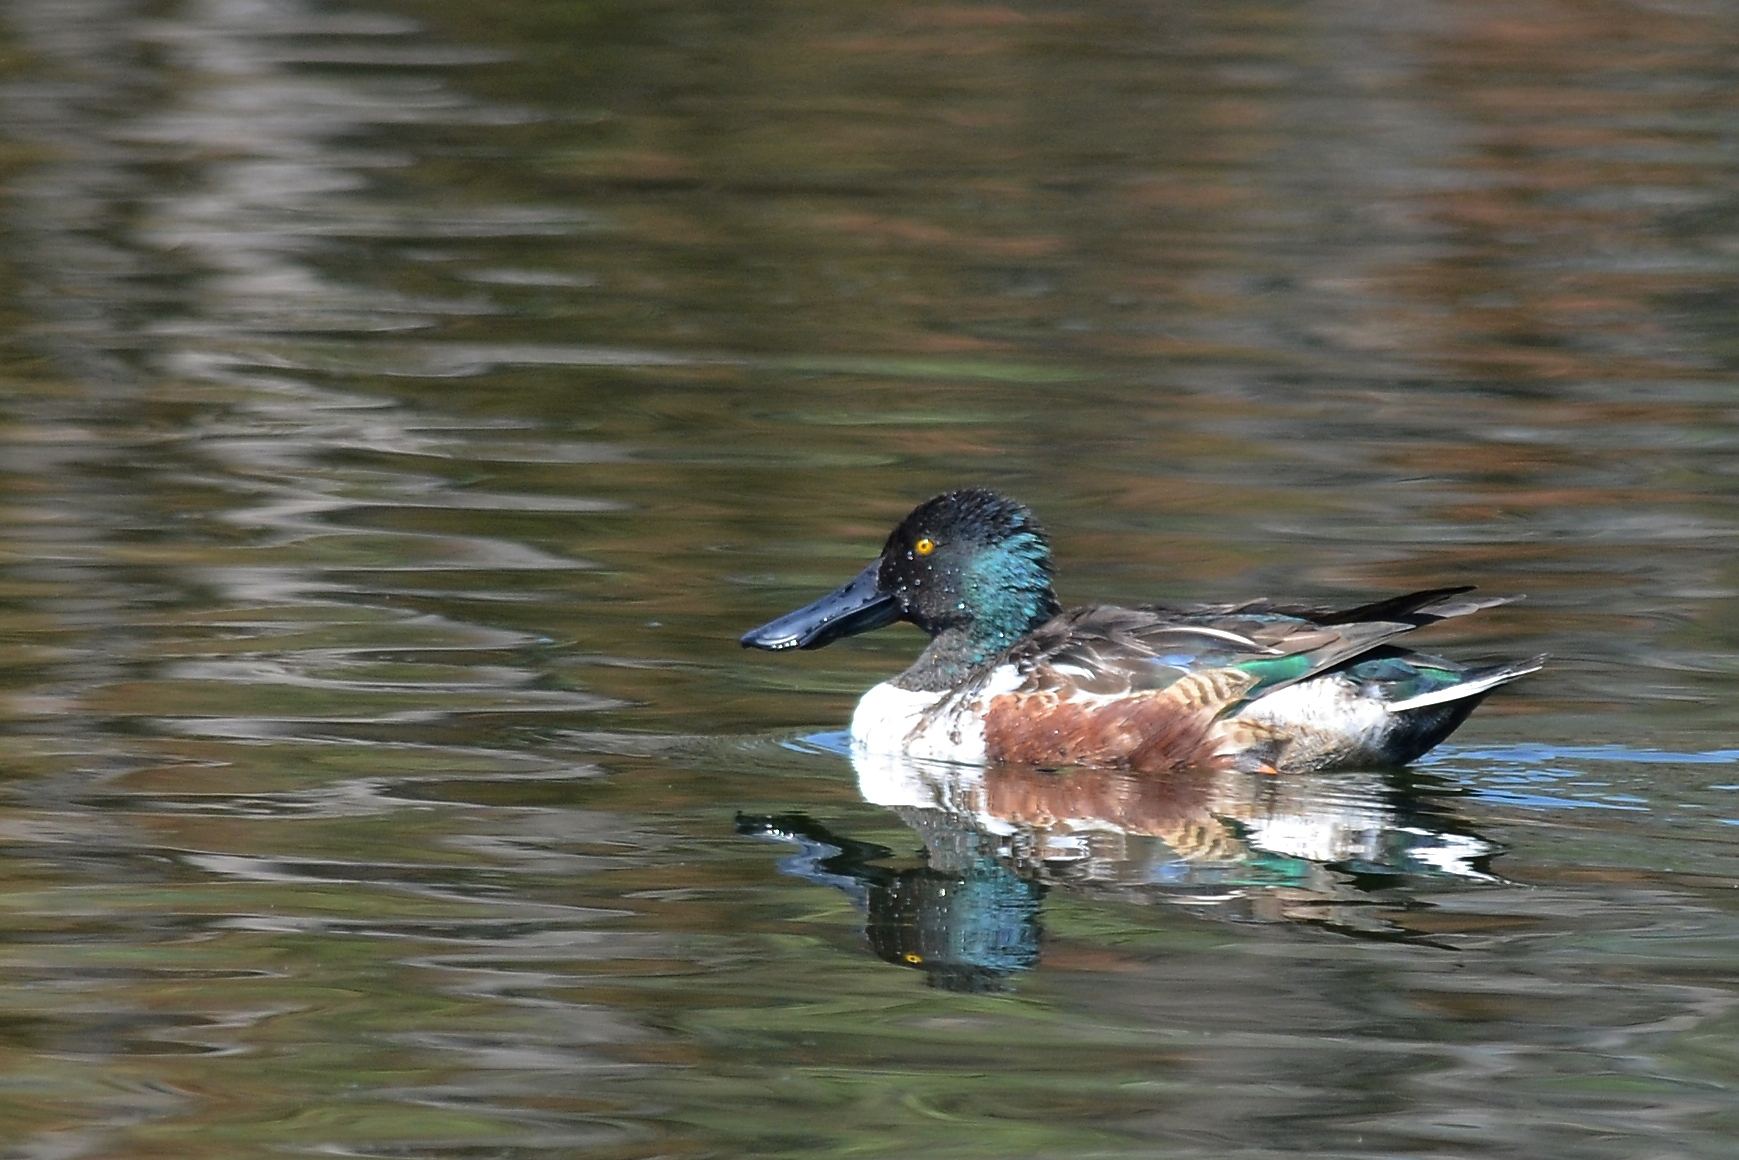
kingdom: Animalia
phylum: Chordata
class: Aves
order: Anseriformes
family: Anatidae
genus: Spatula
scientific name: Spatula clypeata
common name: Northern shoveler
